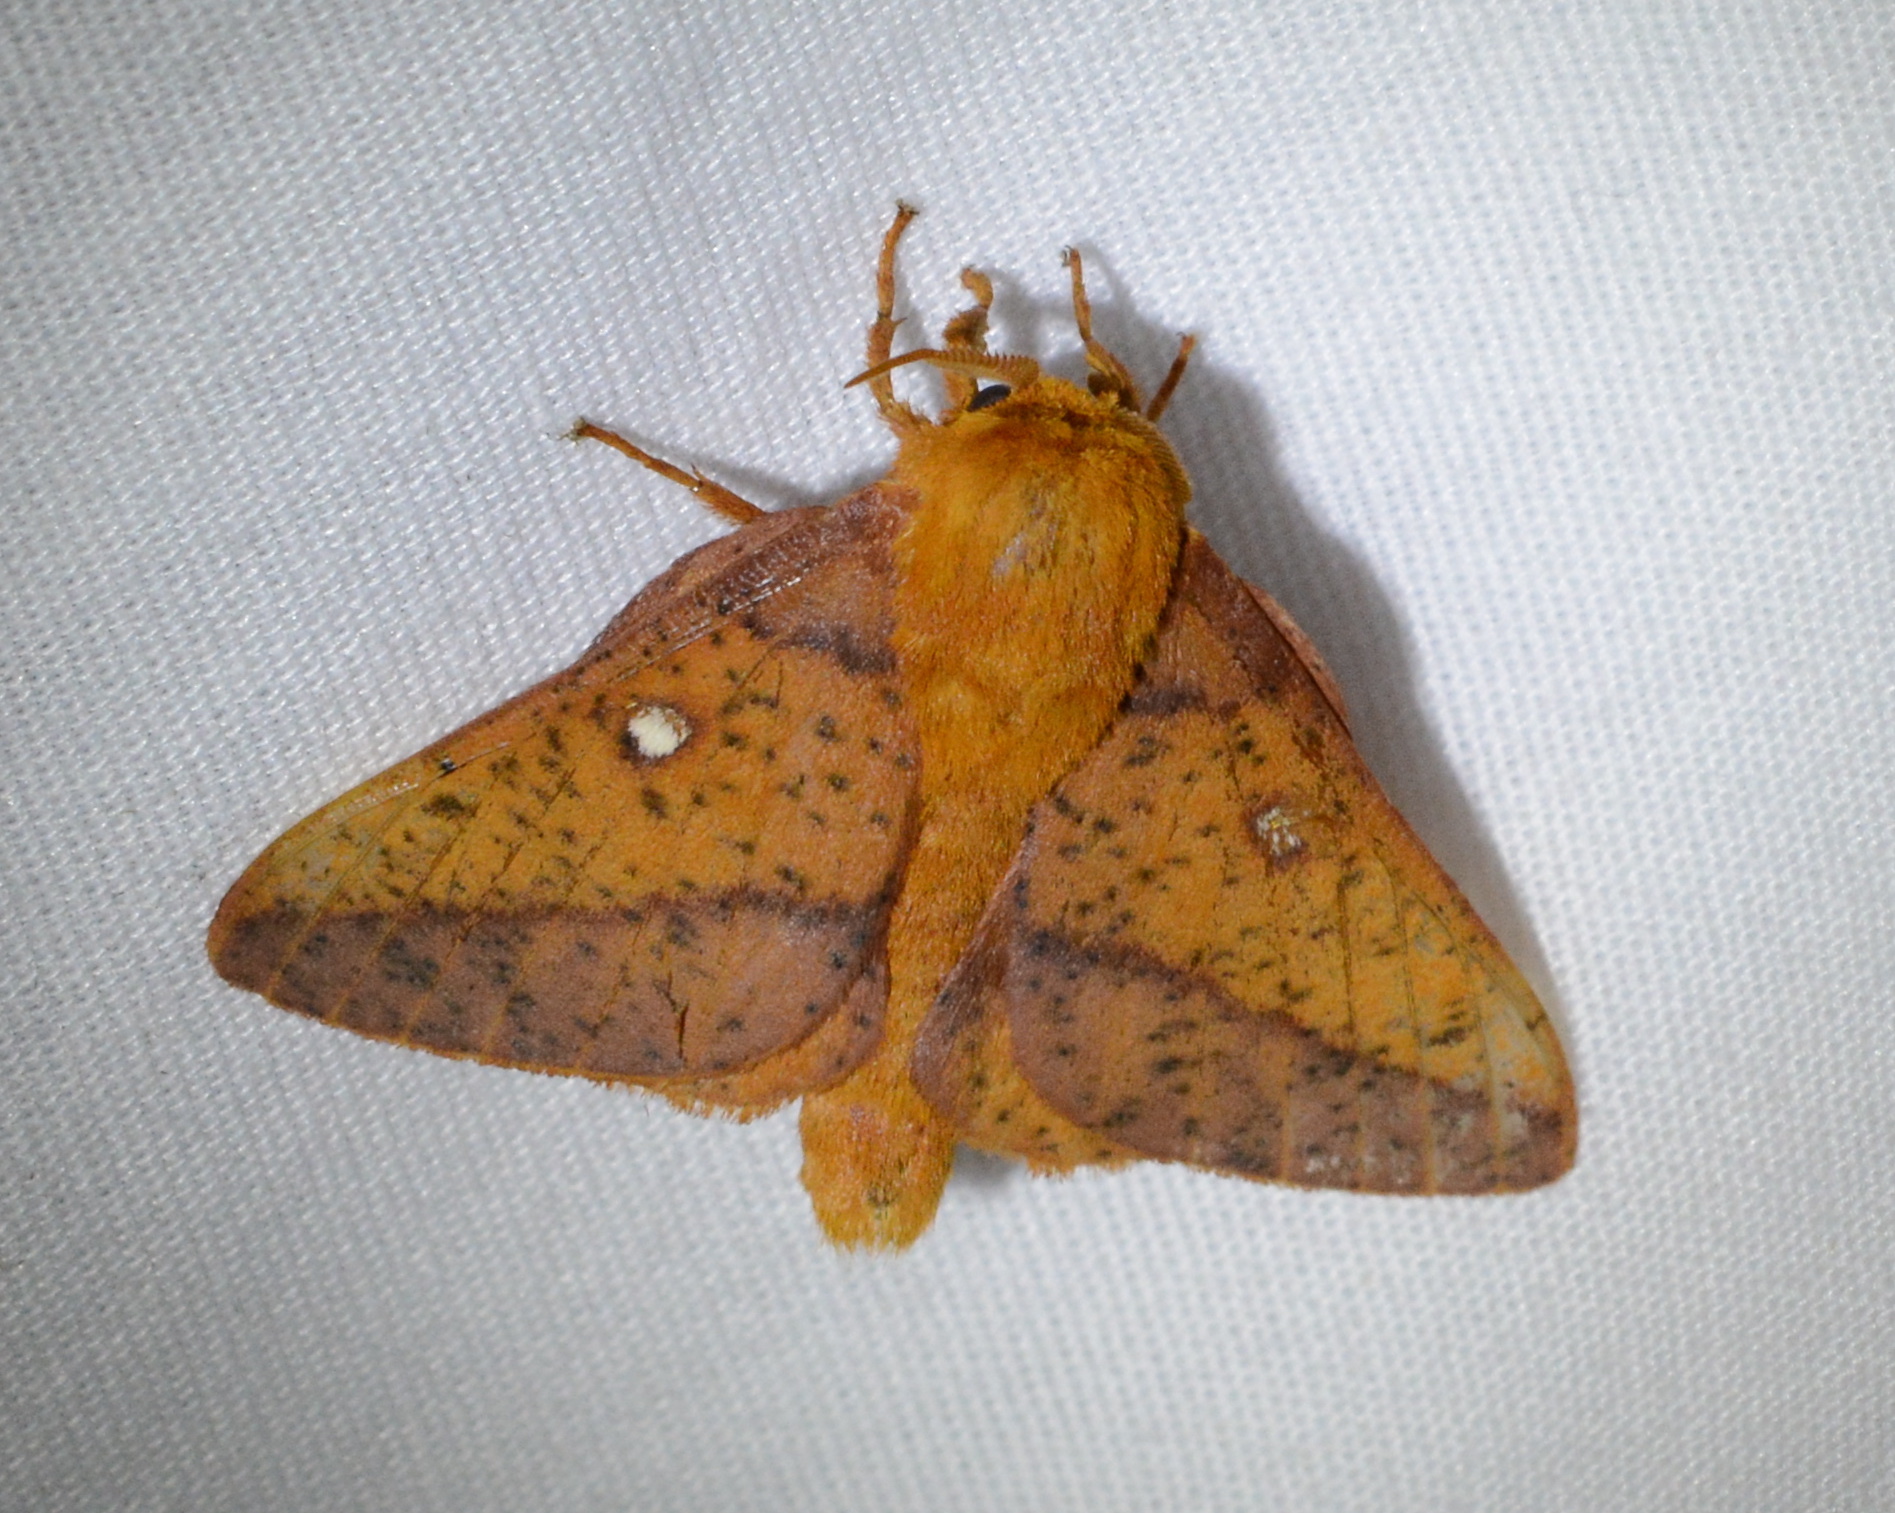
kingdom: Animalia
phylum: Arthropoda
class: Insecta
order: Lepidoptera
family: Saturniidae
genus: Anisota
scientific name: Anisota stigma
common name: Spiny oakworm moth
